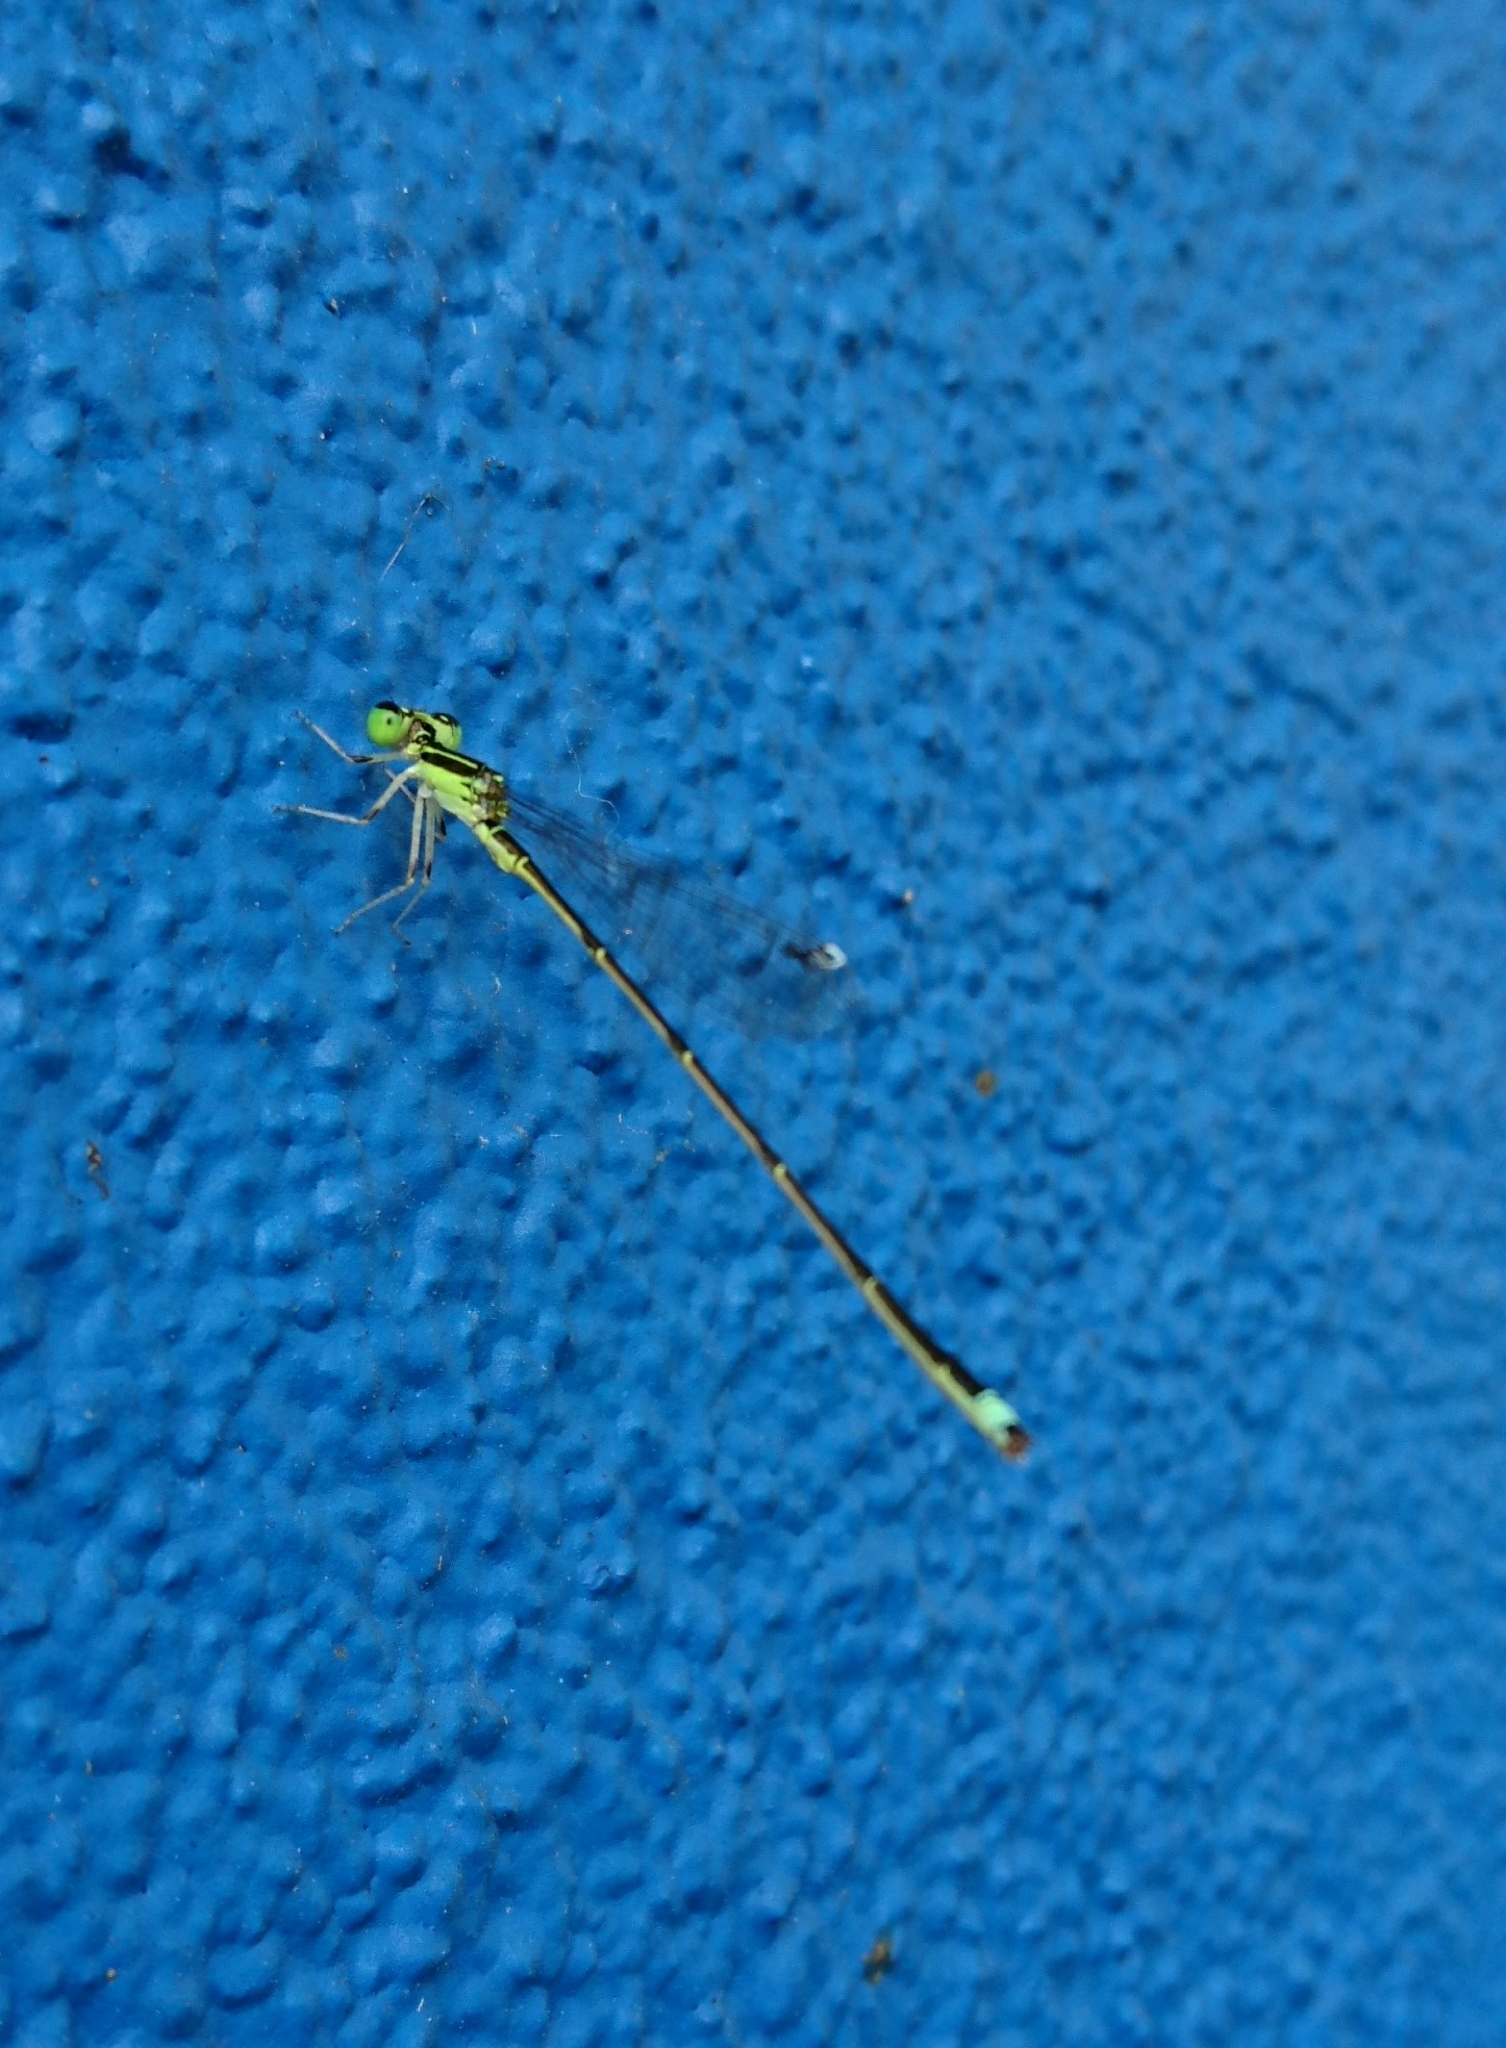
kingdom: Animalia
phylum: Arthropoda
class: Insecta
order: Odonata
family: Coenagrionidae
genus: Ischnura
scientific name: Ischnura prognata
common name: Furtive forktail
